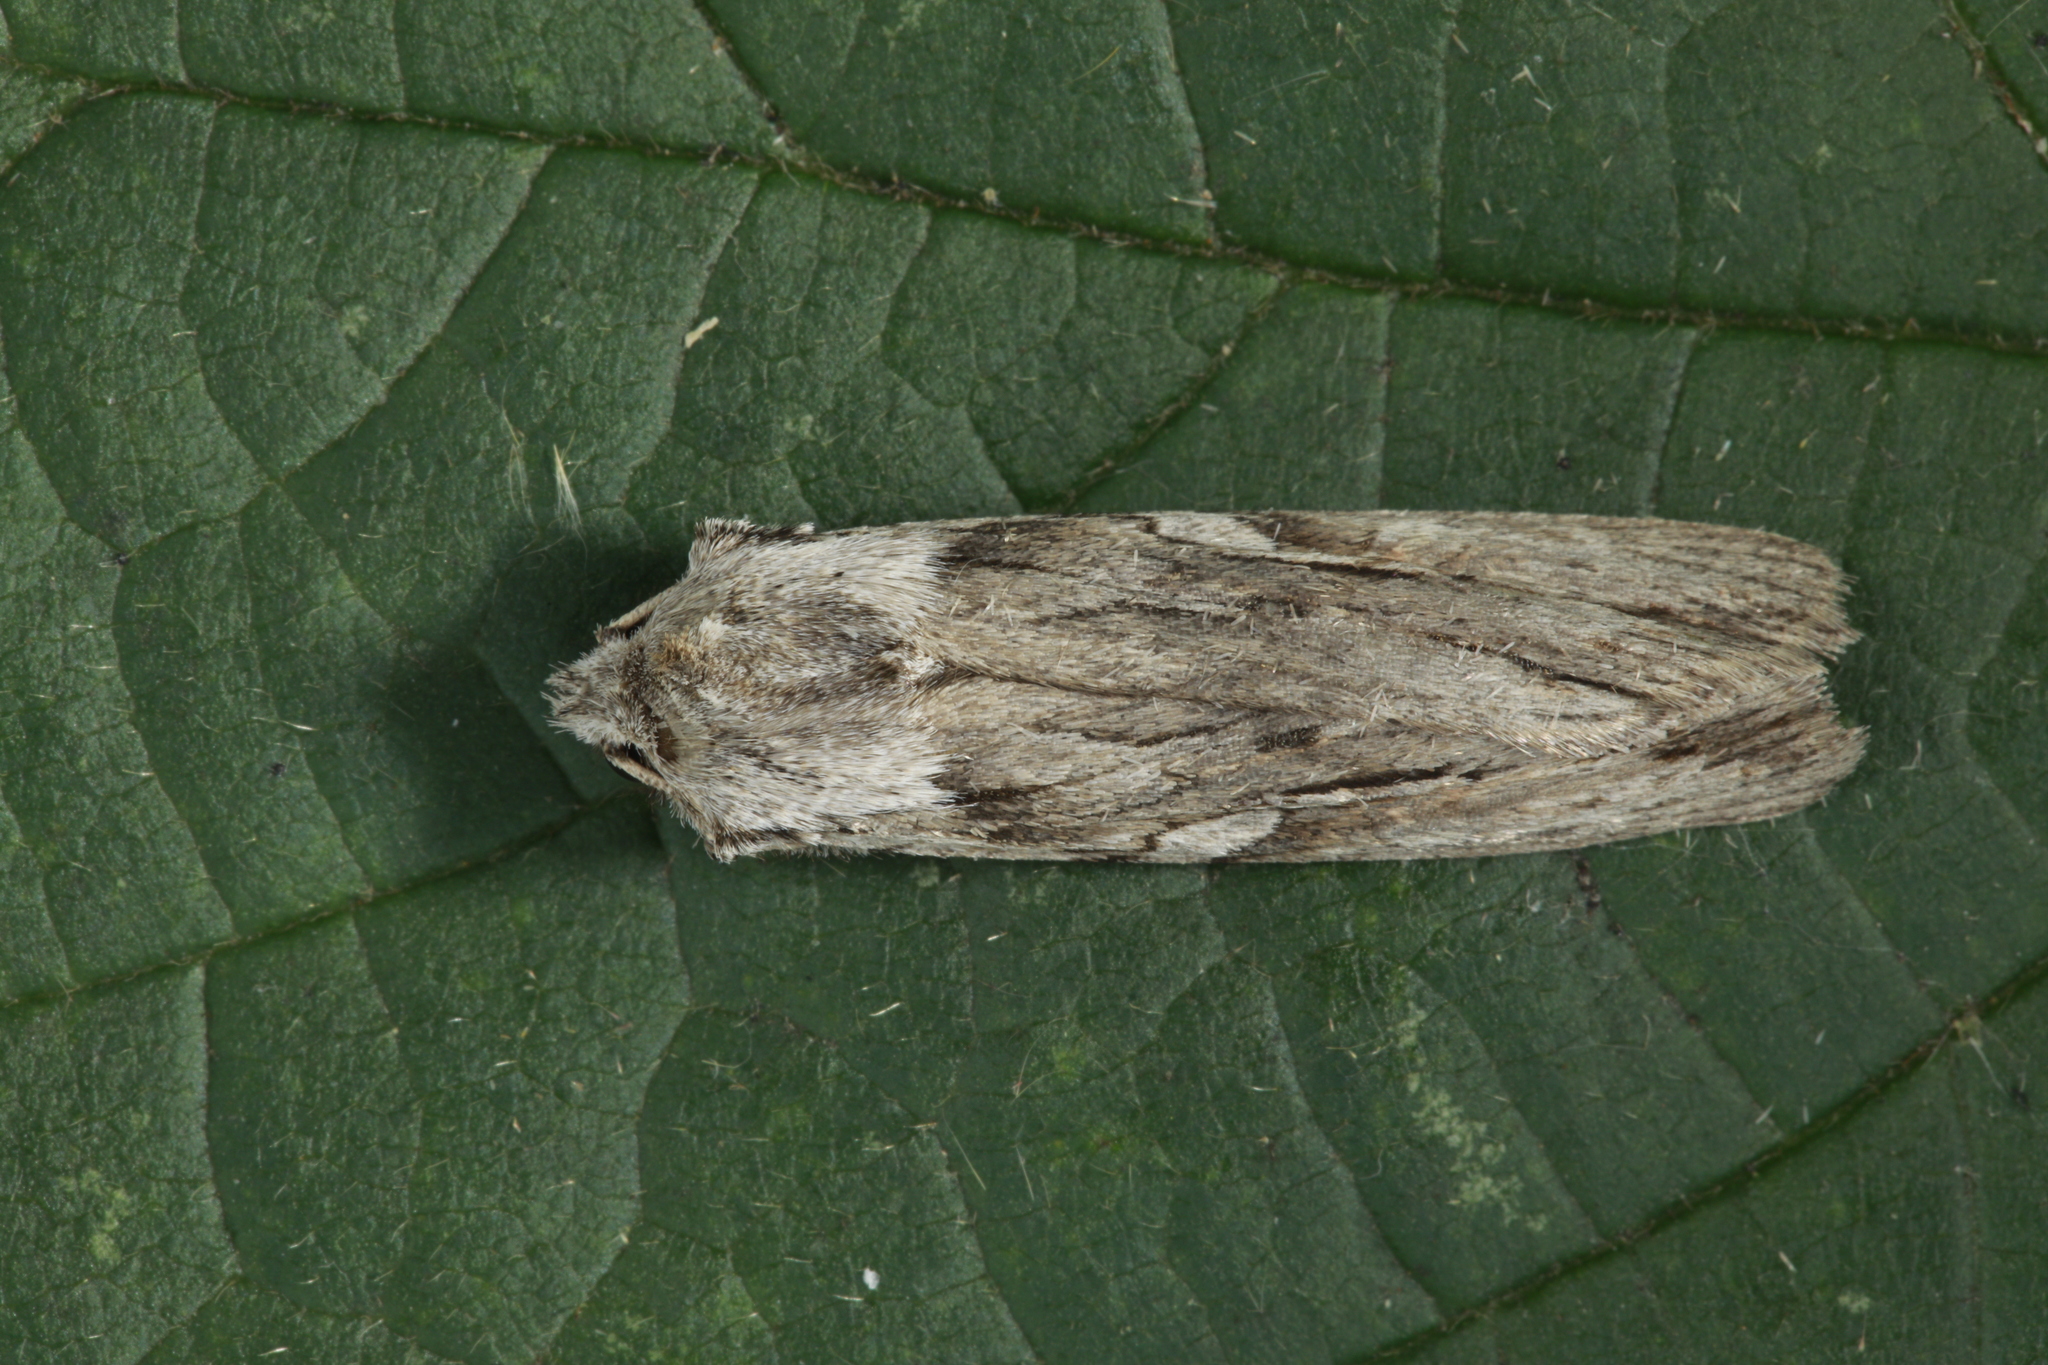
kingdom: Animalia
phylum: Arthropoda
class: Insecta
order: Lepidoptera
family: Noctuidae
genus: Lithophane
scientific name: Lithophane leautieri
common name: Blair's shoulder-knot
